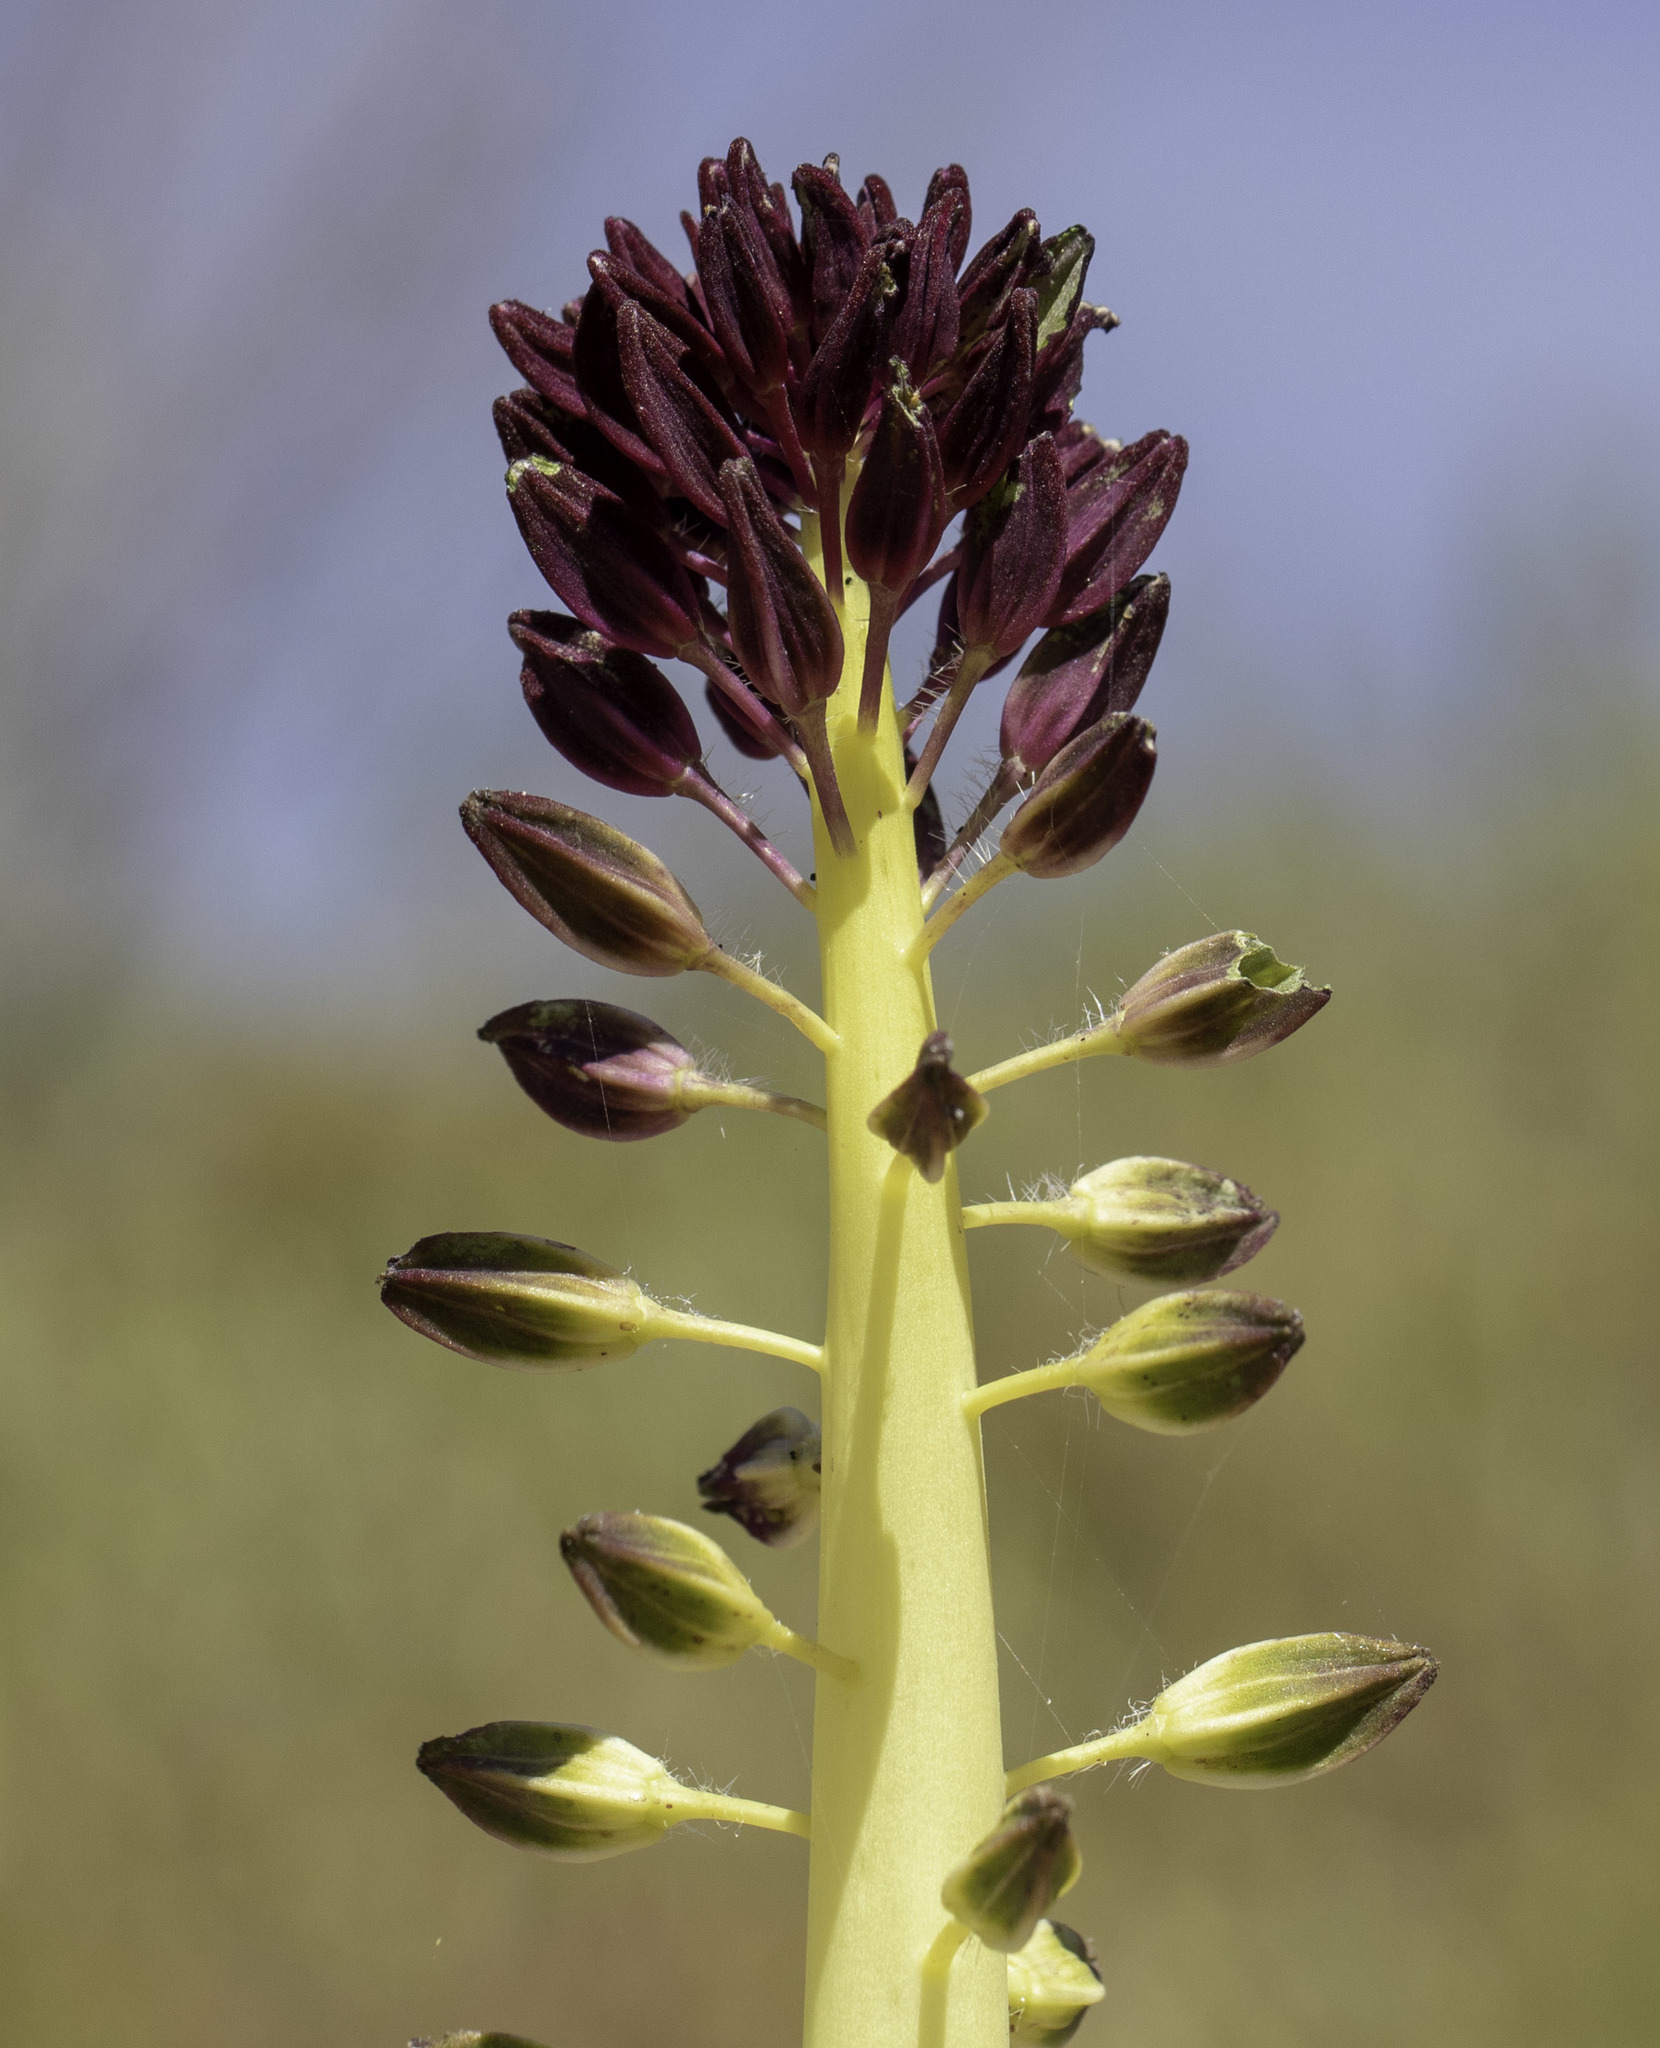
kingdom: Plantae
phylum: Tracheophyta
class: Magnoliopsida
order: Brassicales
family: Brassicaceae
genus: Streptanthus
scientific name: Streptanthus inflatus
